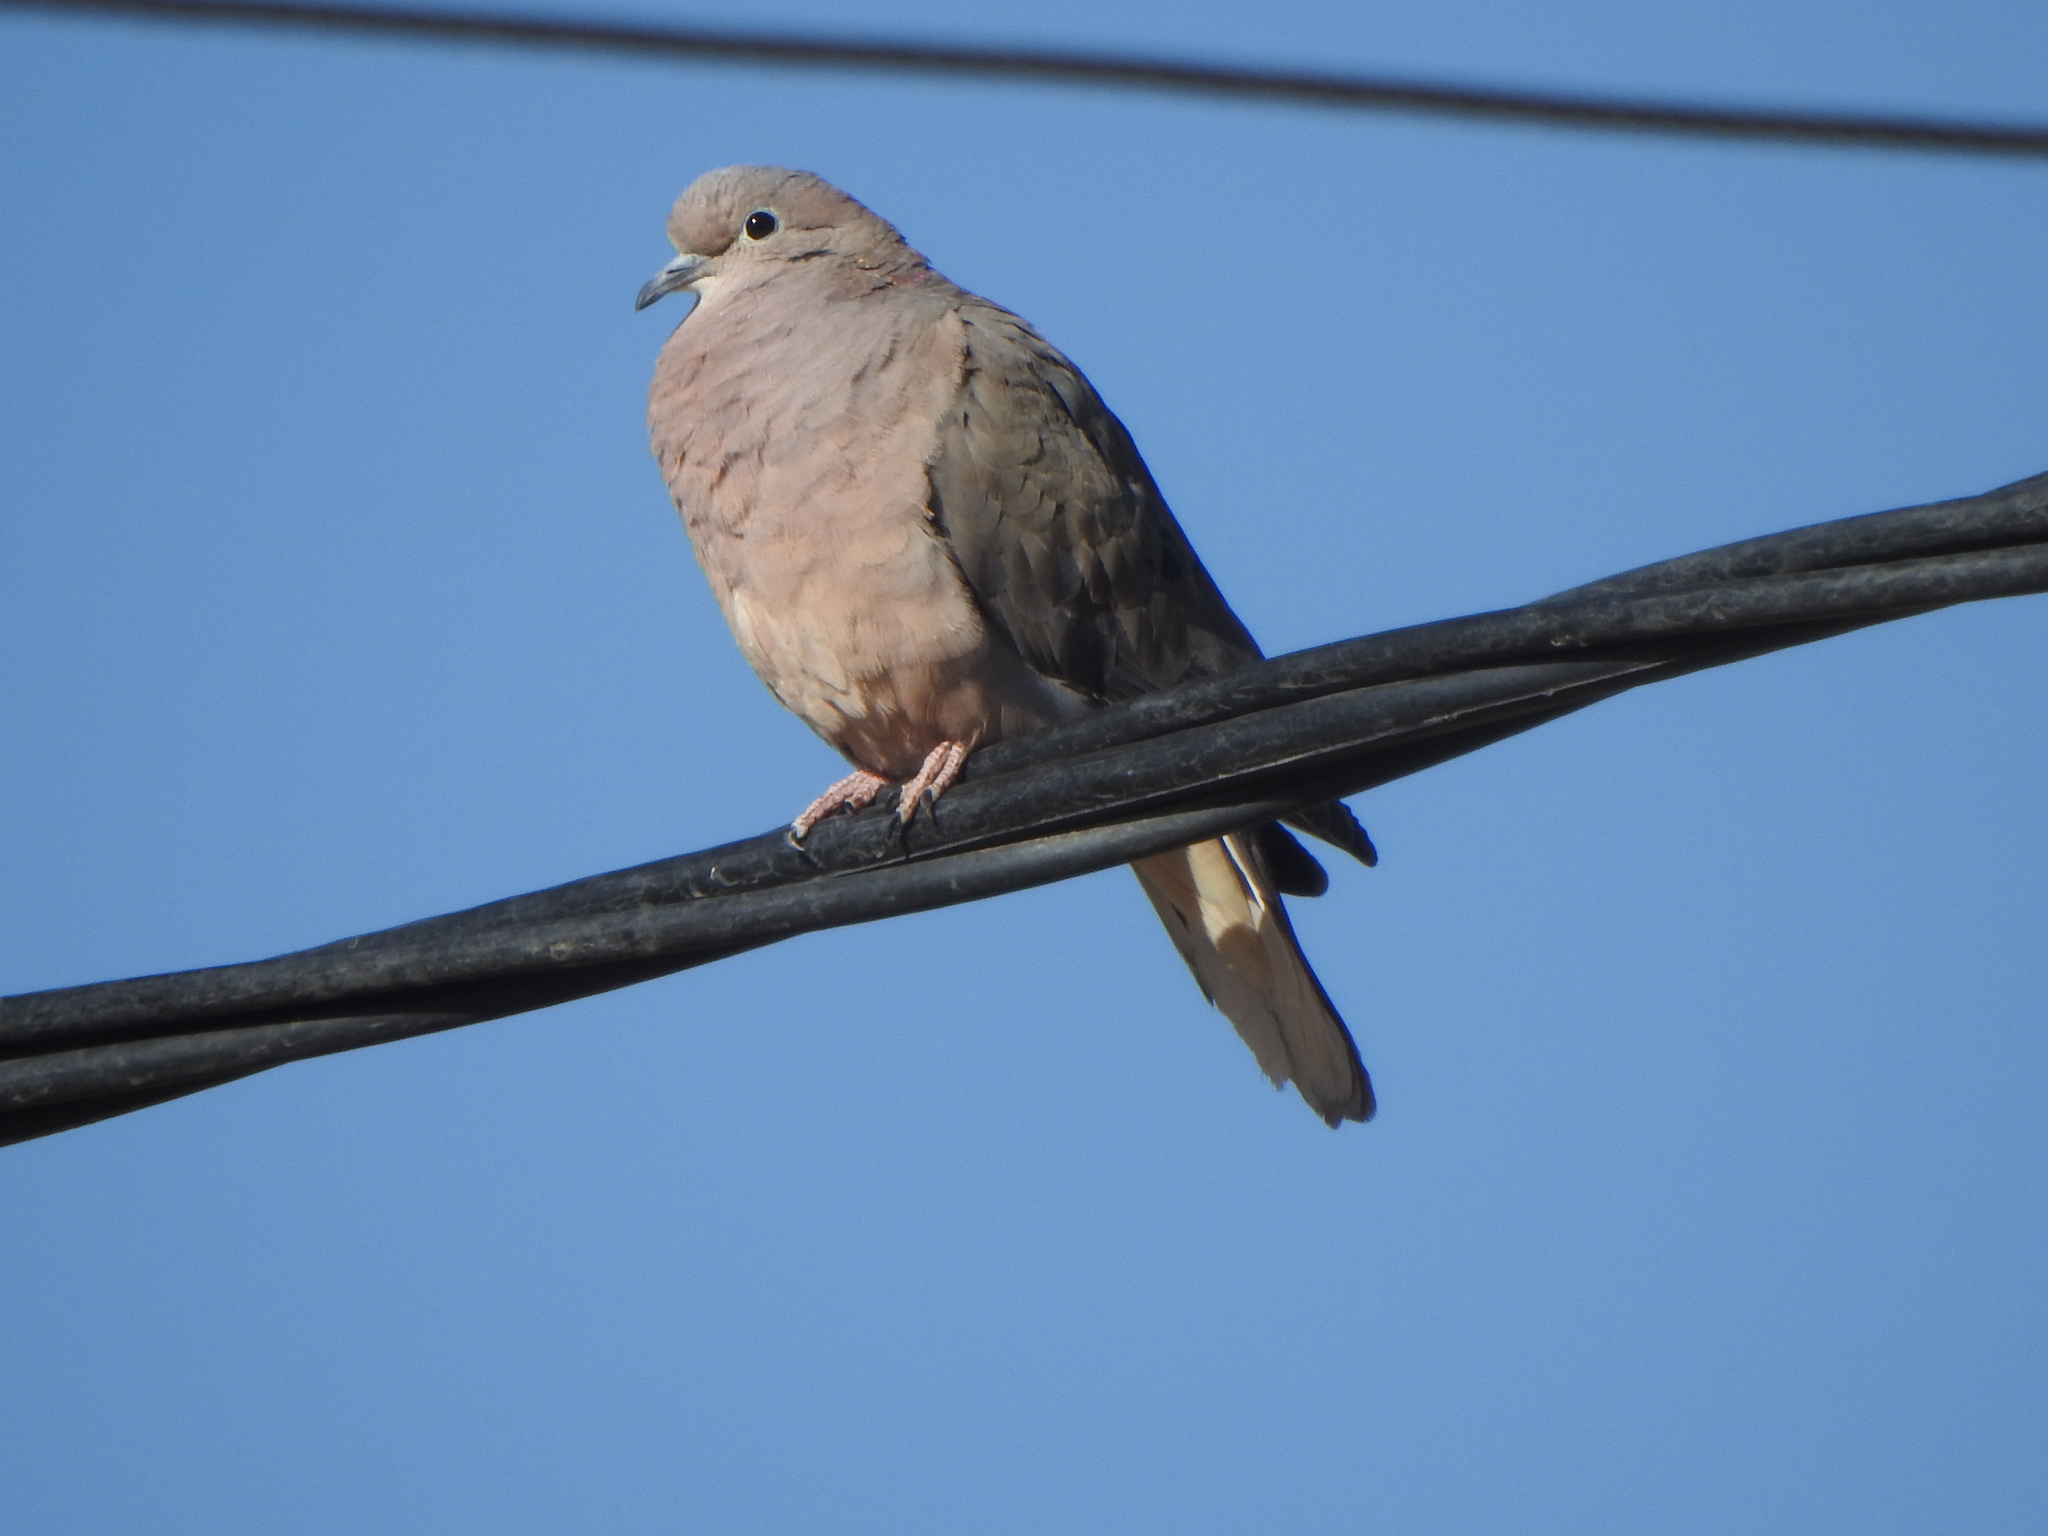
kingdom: Animalia
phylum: Chordata
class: Aves
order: Columbiformes
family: Columbidae
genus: Zenaida
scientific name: Zenaida auriculata
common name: Eared dove
